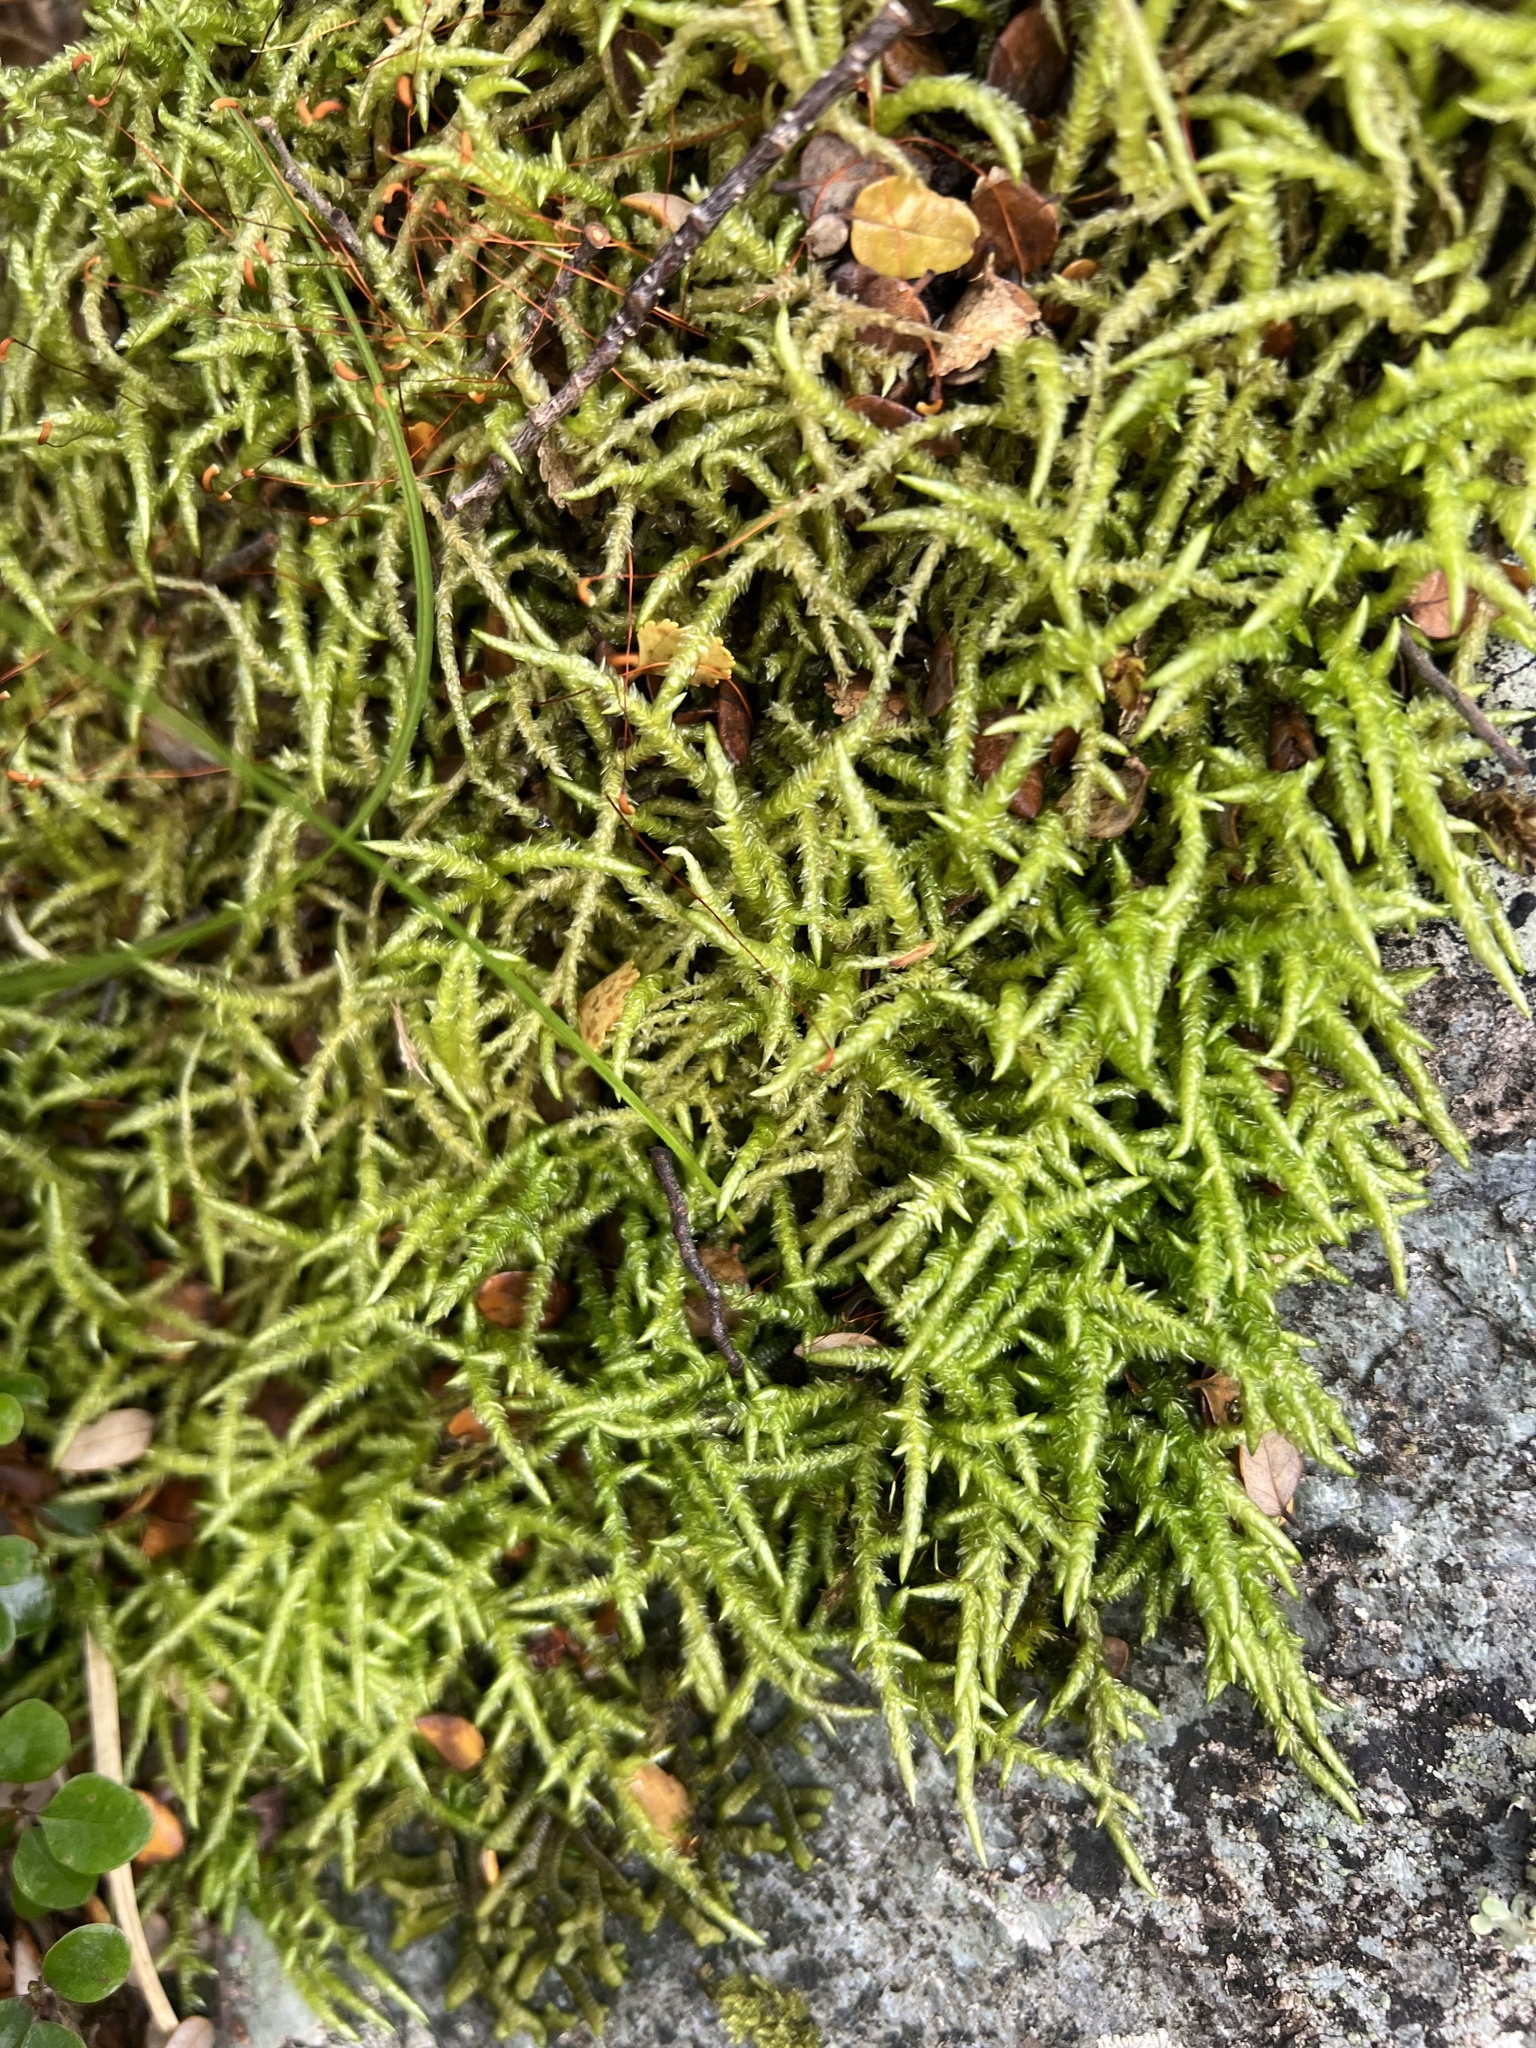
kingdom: Plantae
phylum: Bryophyta
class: Bryopsida
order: Hypnales
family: Acrocladiaceae
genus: Acrocladium
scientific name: Acrocladium chlamydophyllum
